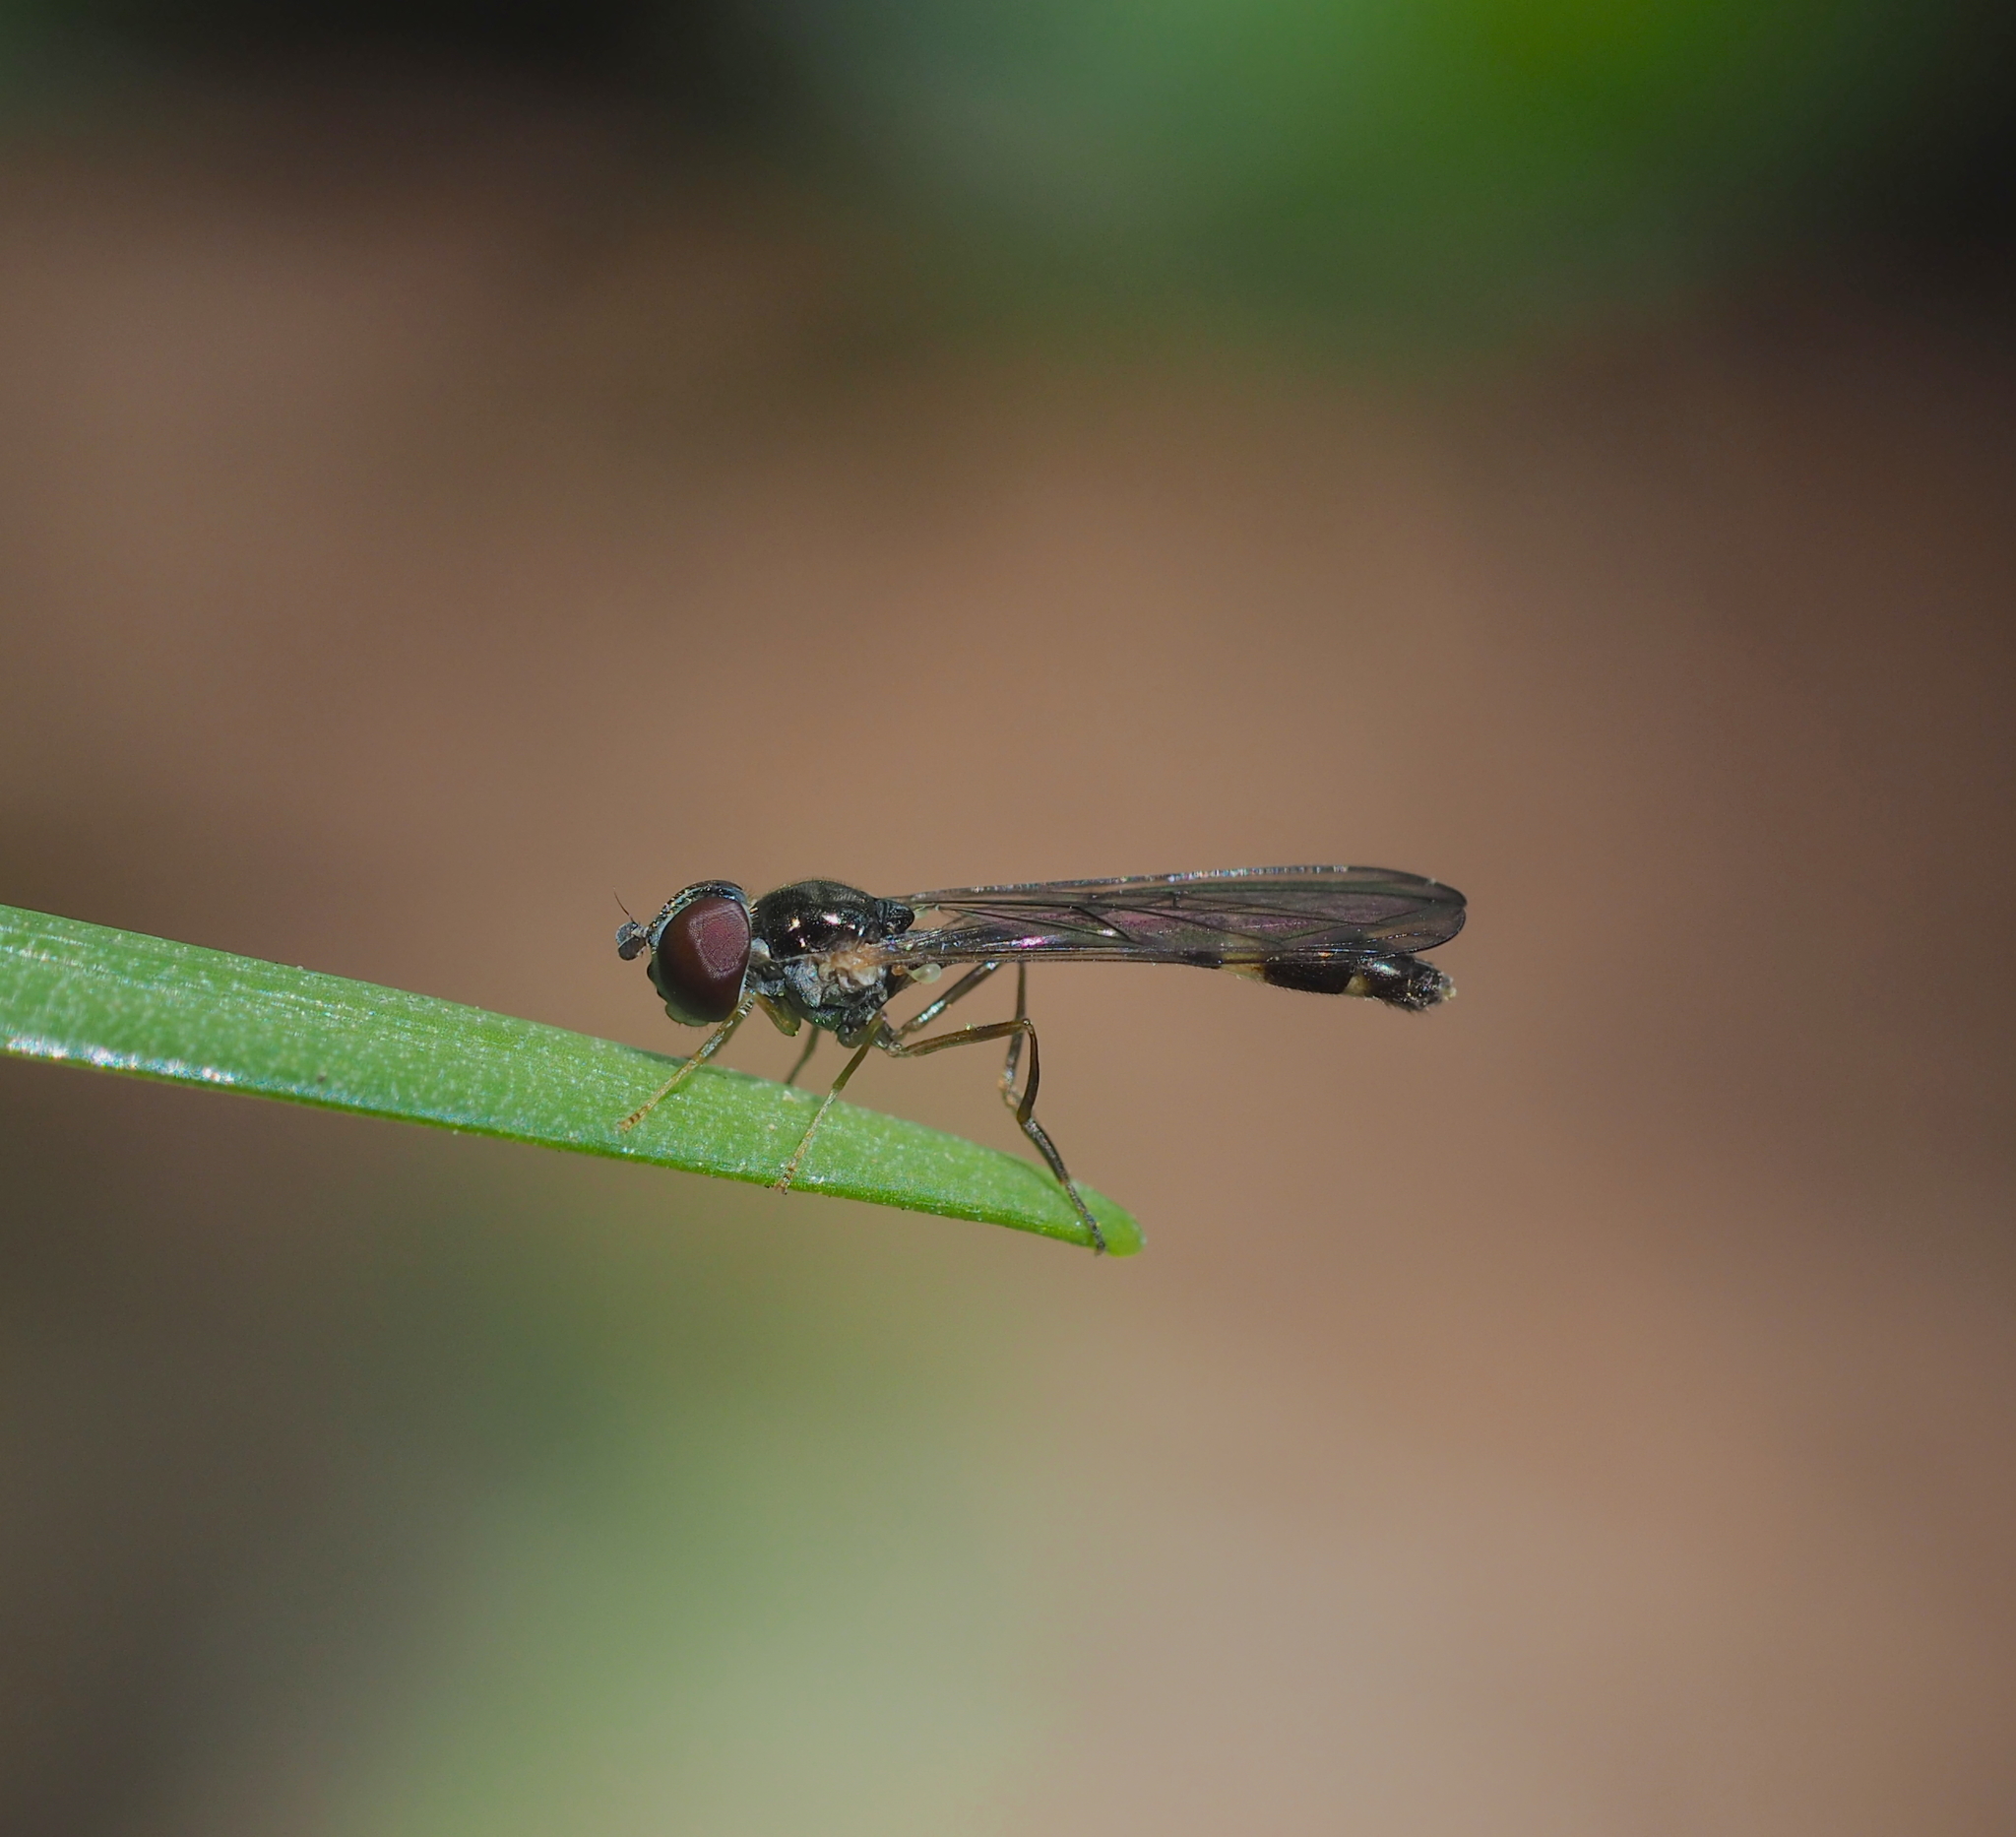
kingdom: Animalia
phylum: Arthropoda
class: Insecta
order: Diptera
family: Syrphidae
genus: Baccha
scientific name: Baccha elongata
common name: Common dainty
